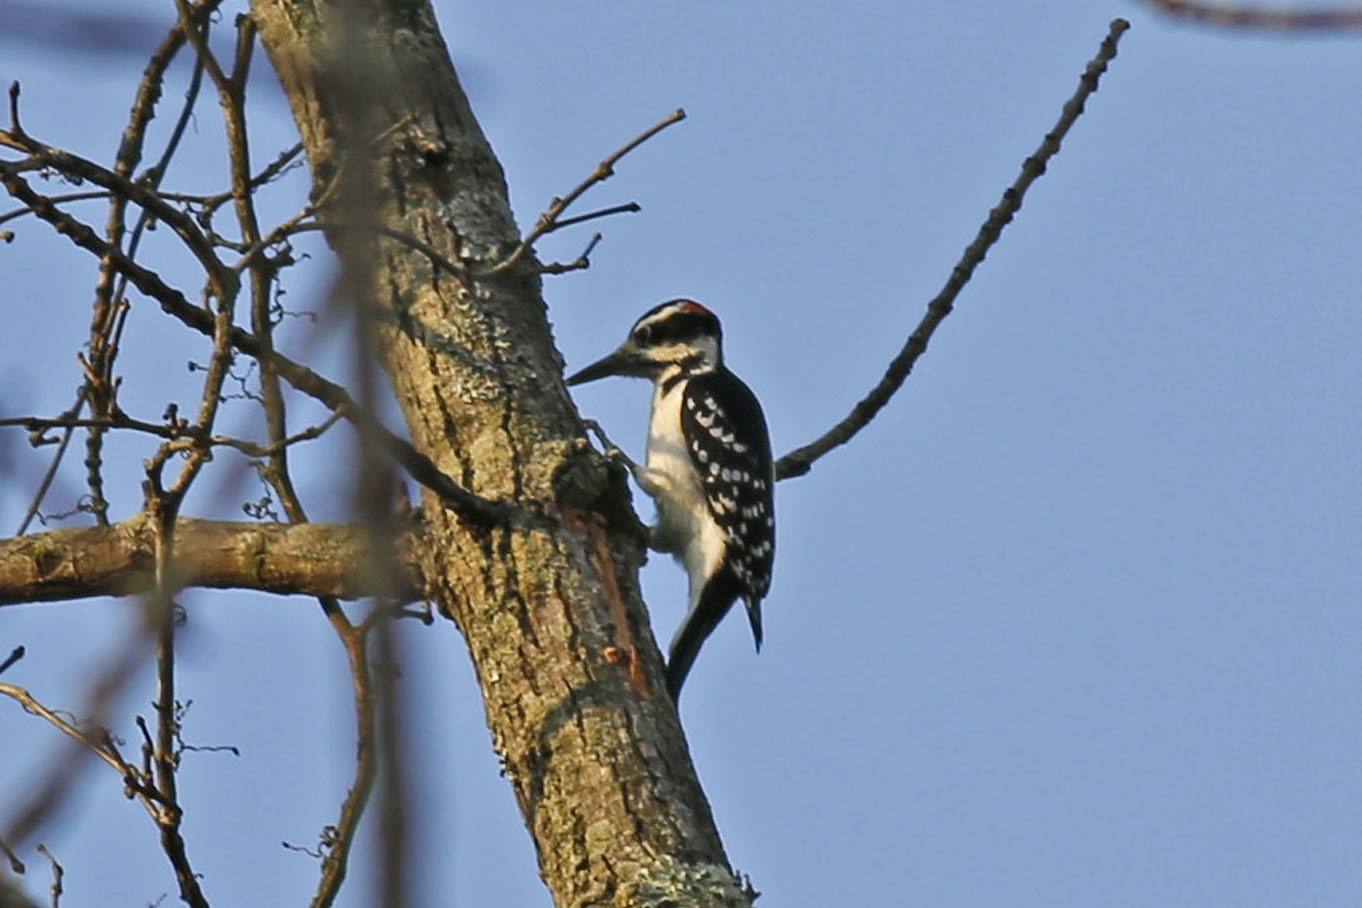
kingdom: Animalia
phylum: Chordata
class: Aves
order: Piciformes
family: Picidae
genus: Leuconotopicus
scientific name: Leuconotopicus villosus
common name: Hairy woodpecker
